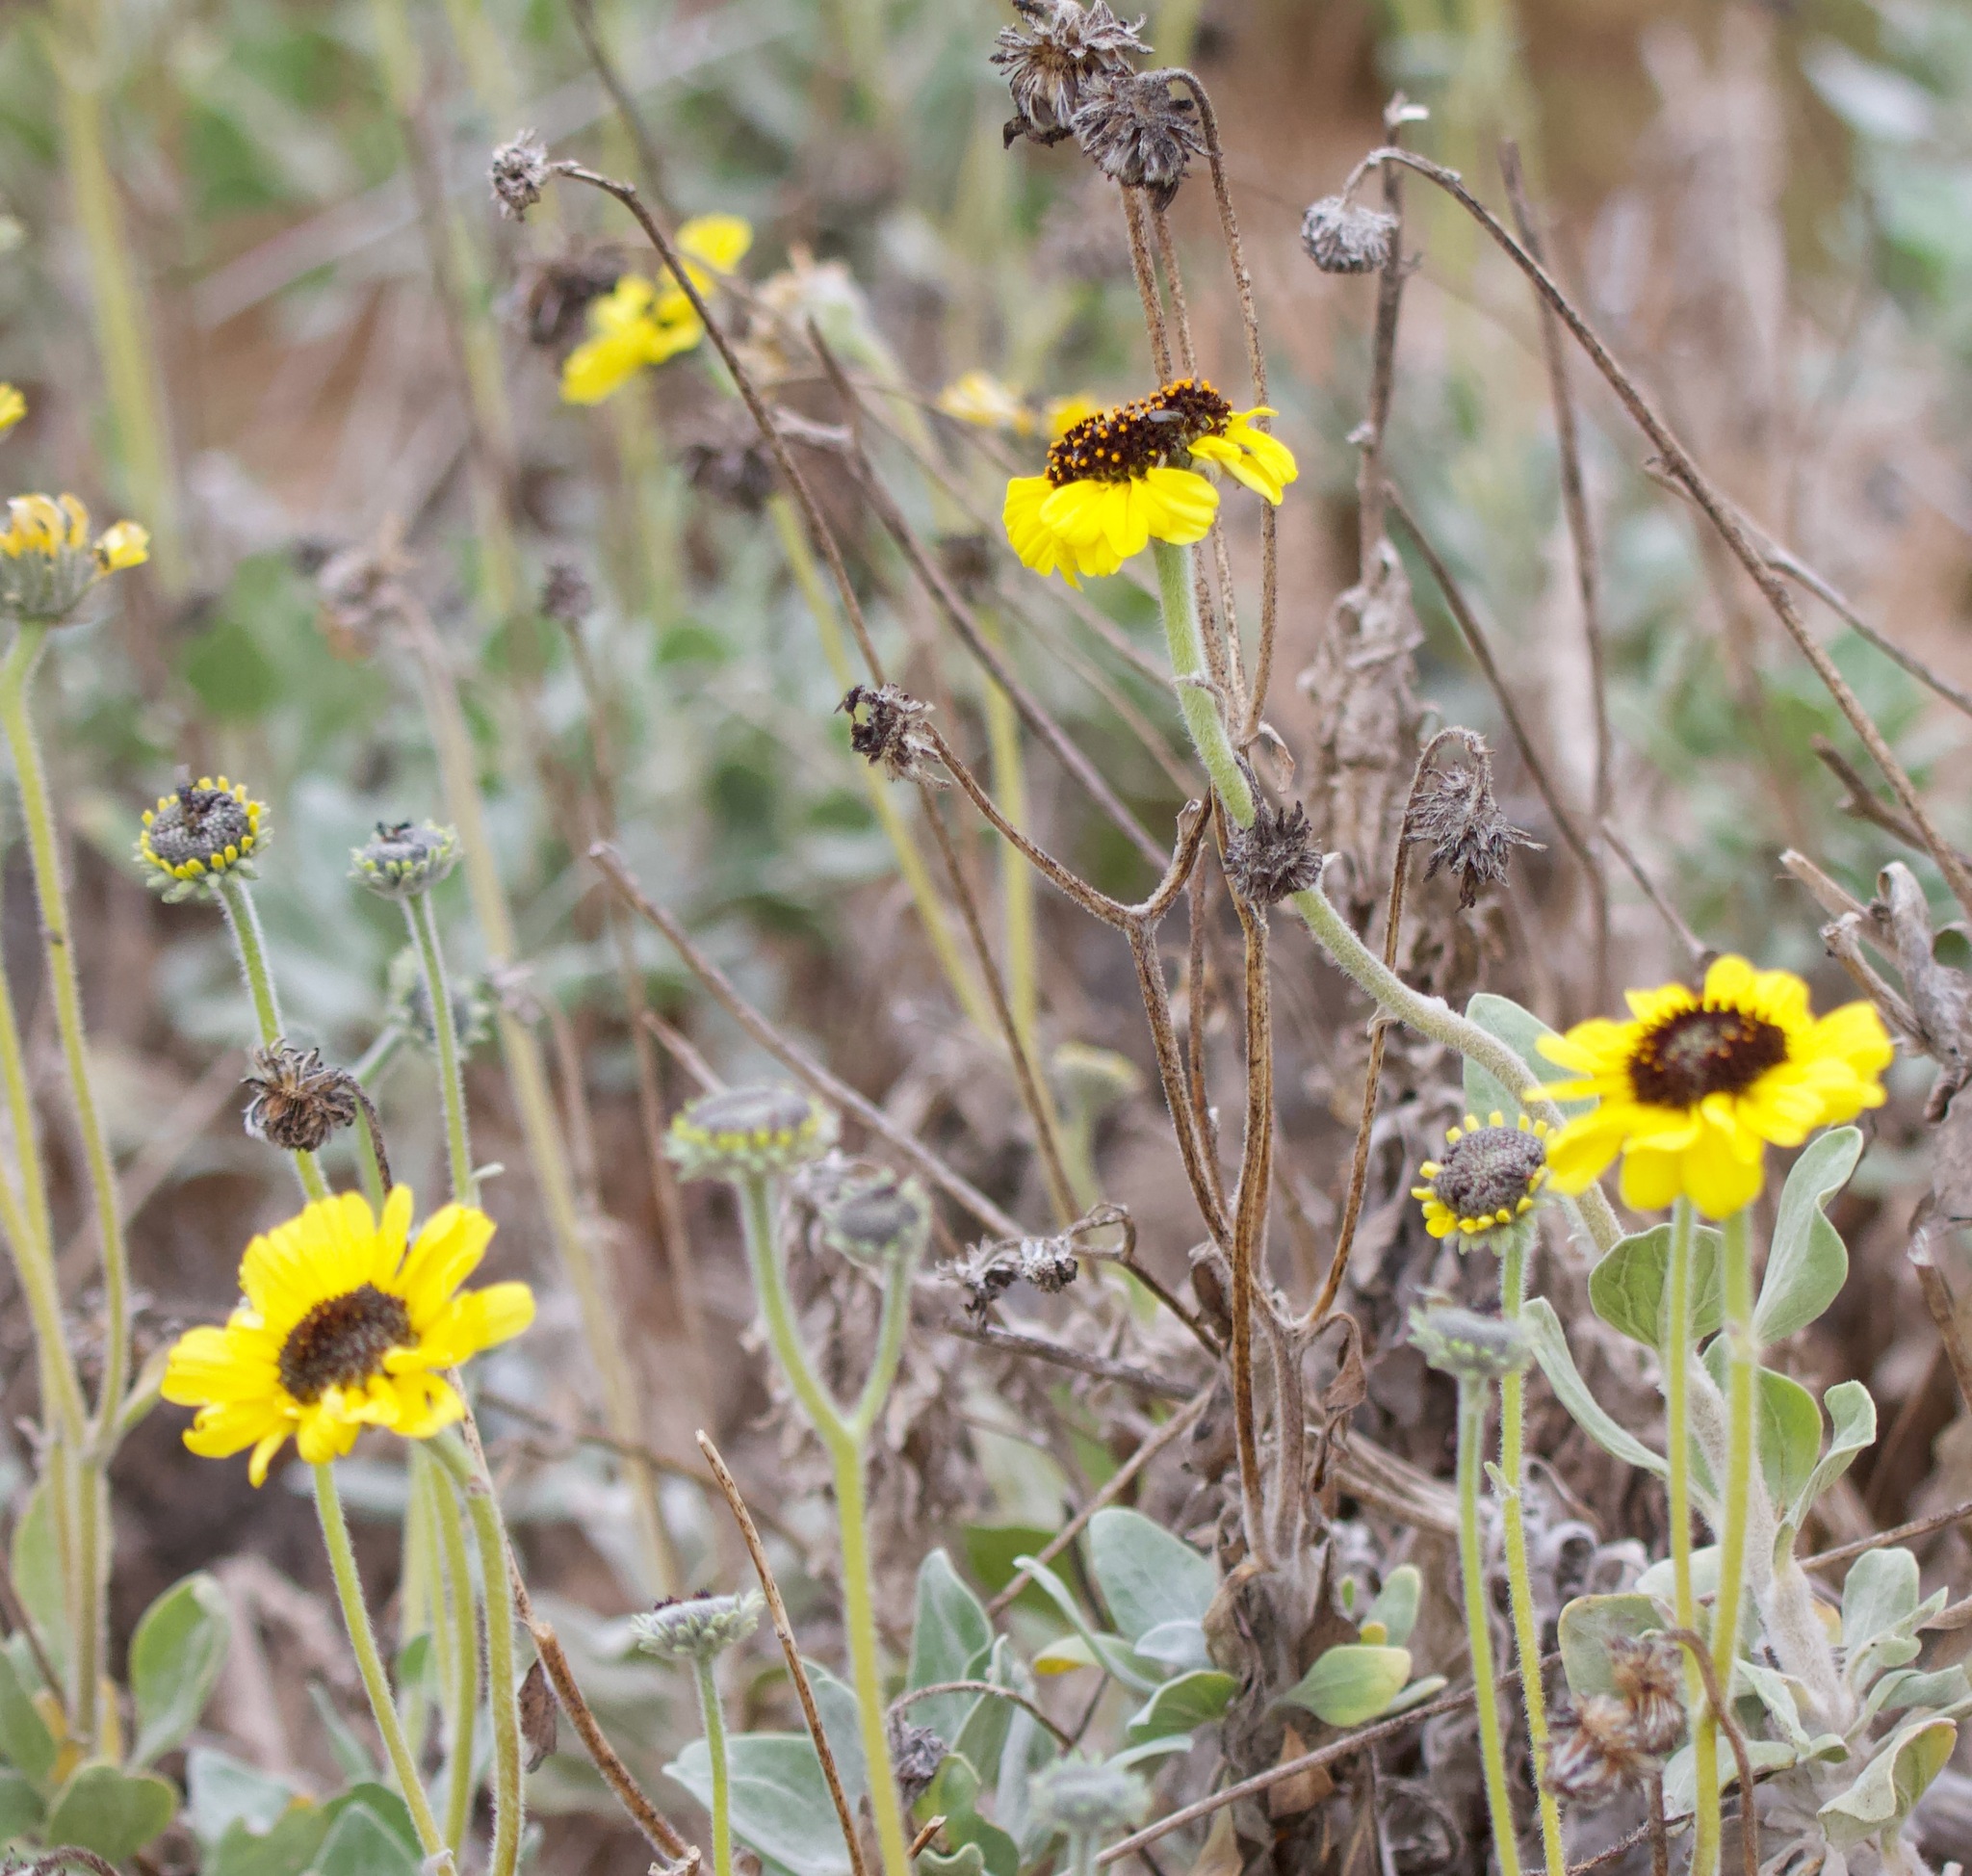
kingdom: Plantae
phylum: Tracheophyta
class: Magnoliopsida
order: Asterales
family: Asteraceae
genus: Encelia
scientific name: Encelia canescens
